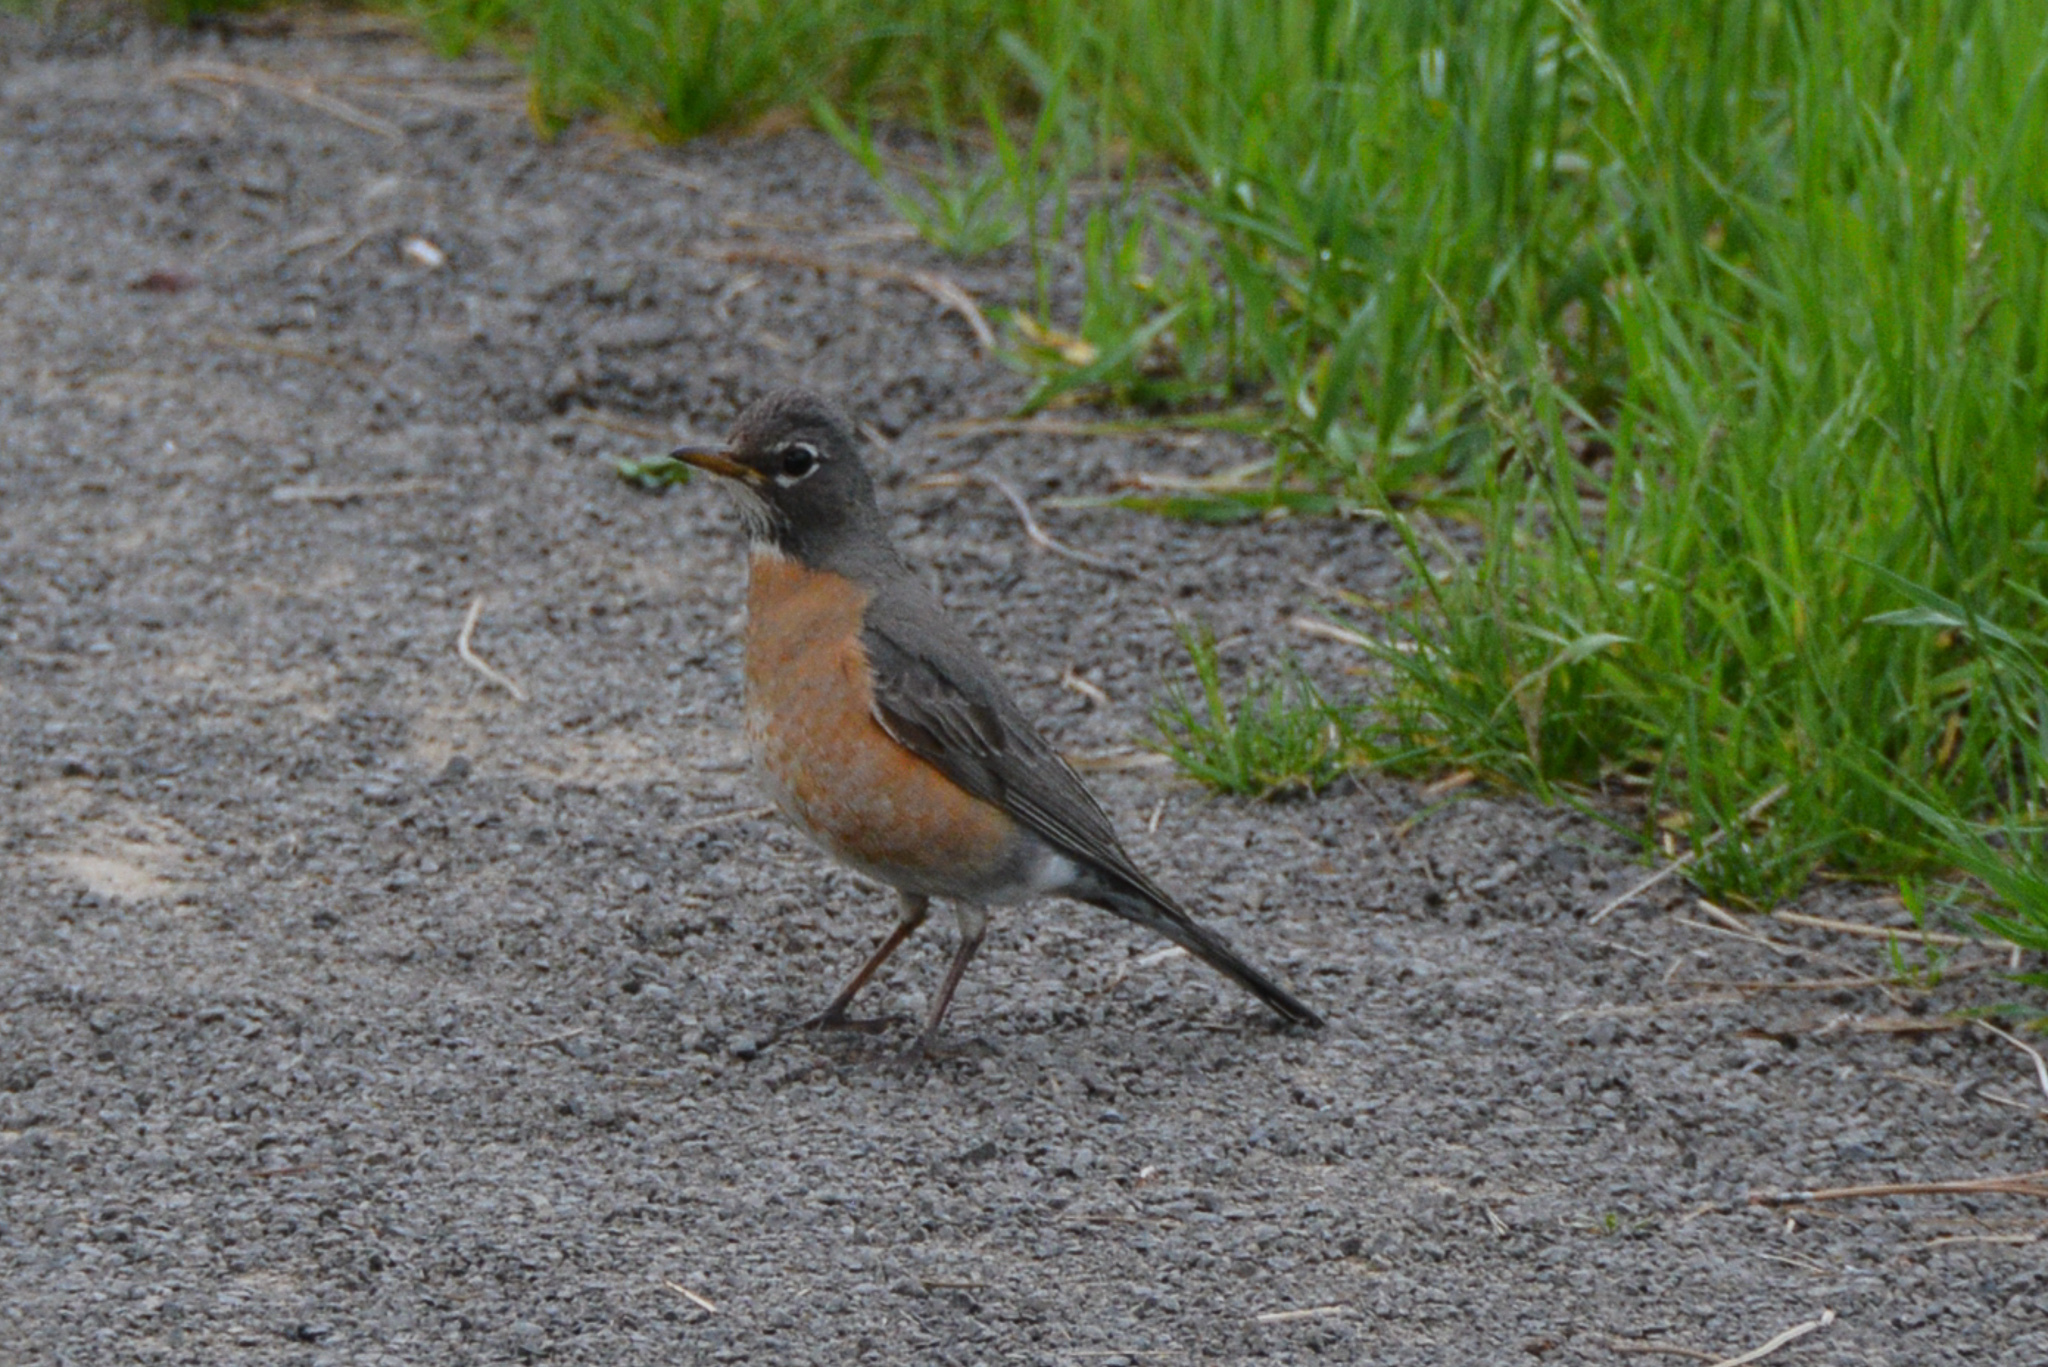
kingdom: Animalia
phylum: Chordata
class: Aves
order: Passeriformes
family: Turdidae
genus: Turdus
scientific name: Turdus migratorius
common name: American robin
